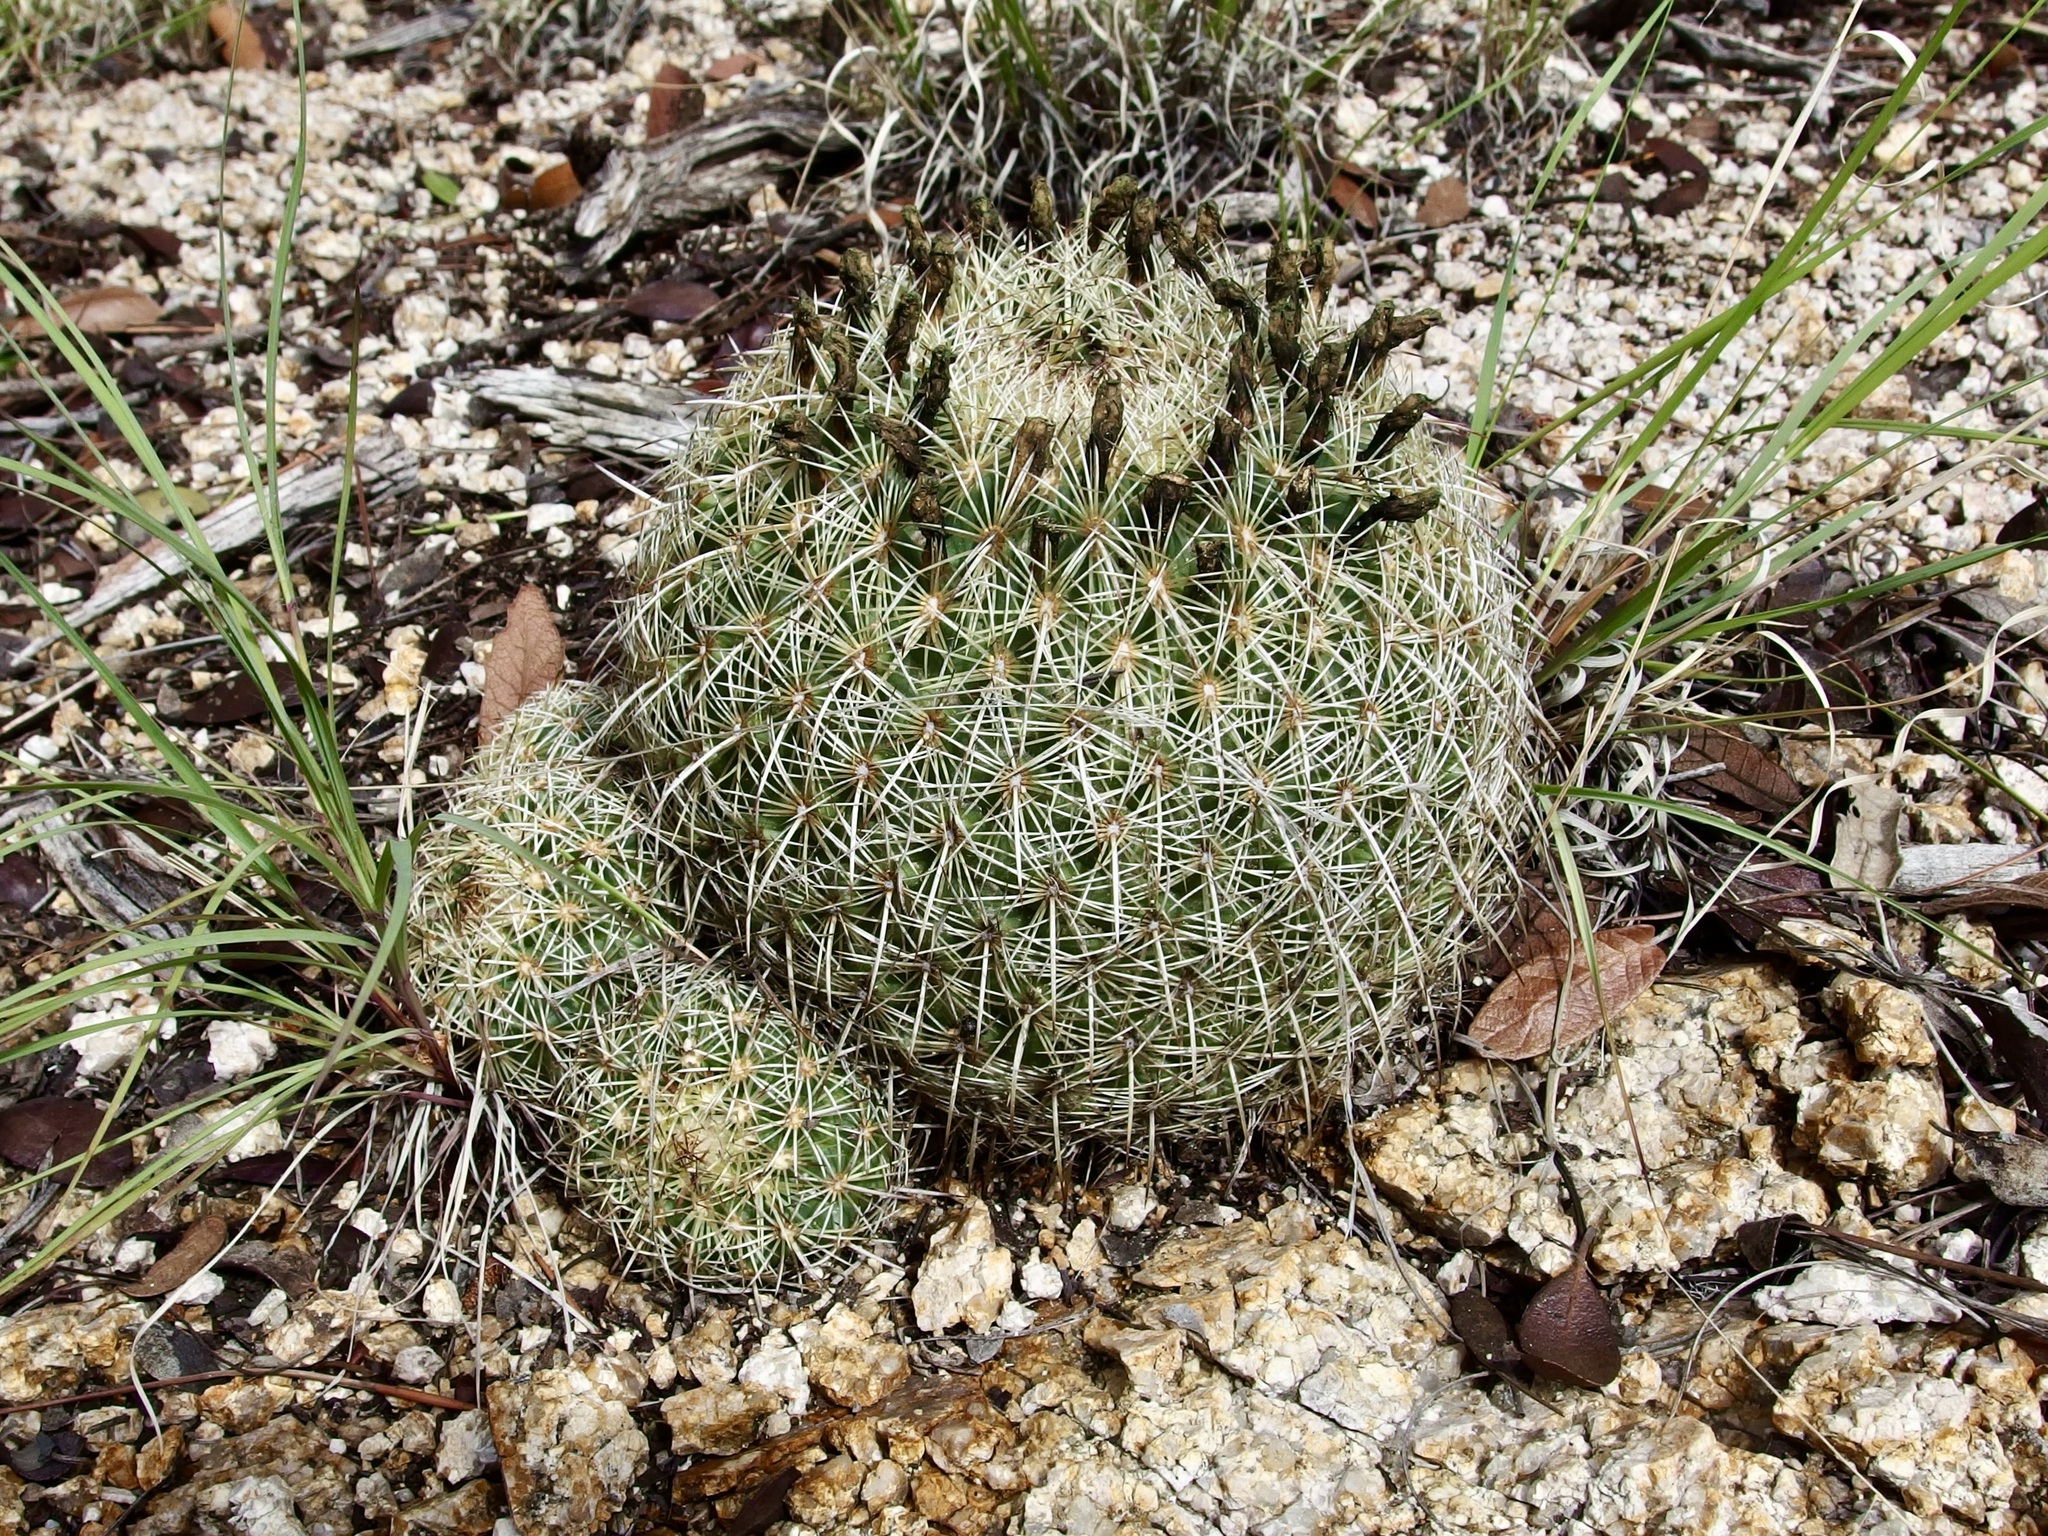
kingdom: Plantae
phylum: Tracheophyta
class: Magnoliopsida
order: Caryophyllales
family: Cactaceae
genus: Coryphantha
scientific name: Coryphantha recurvata
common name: Golden chested beehive
